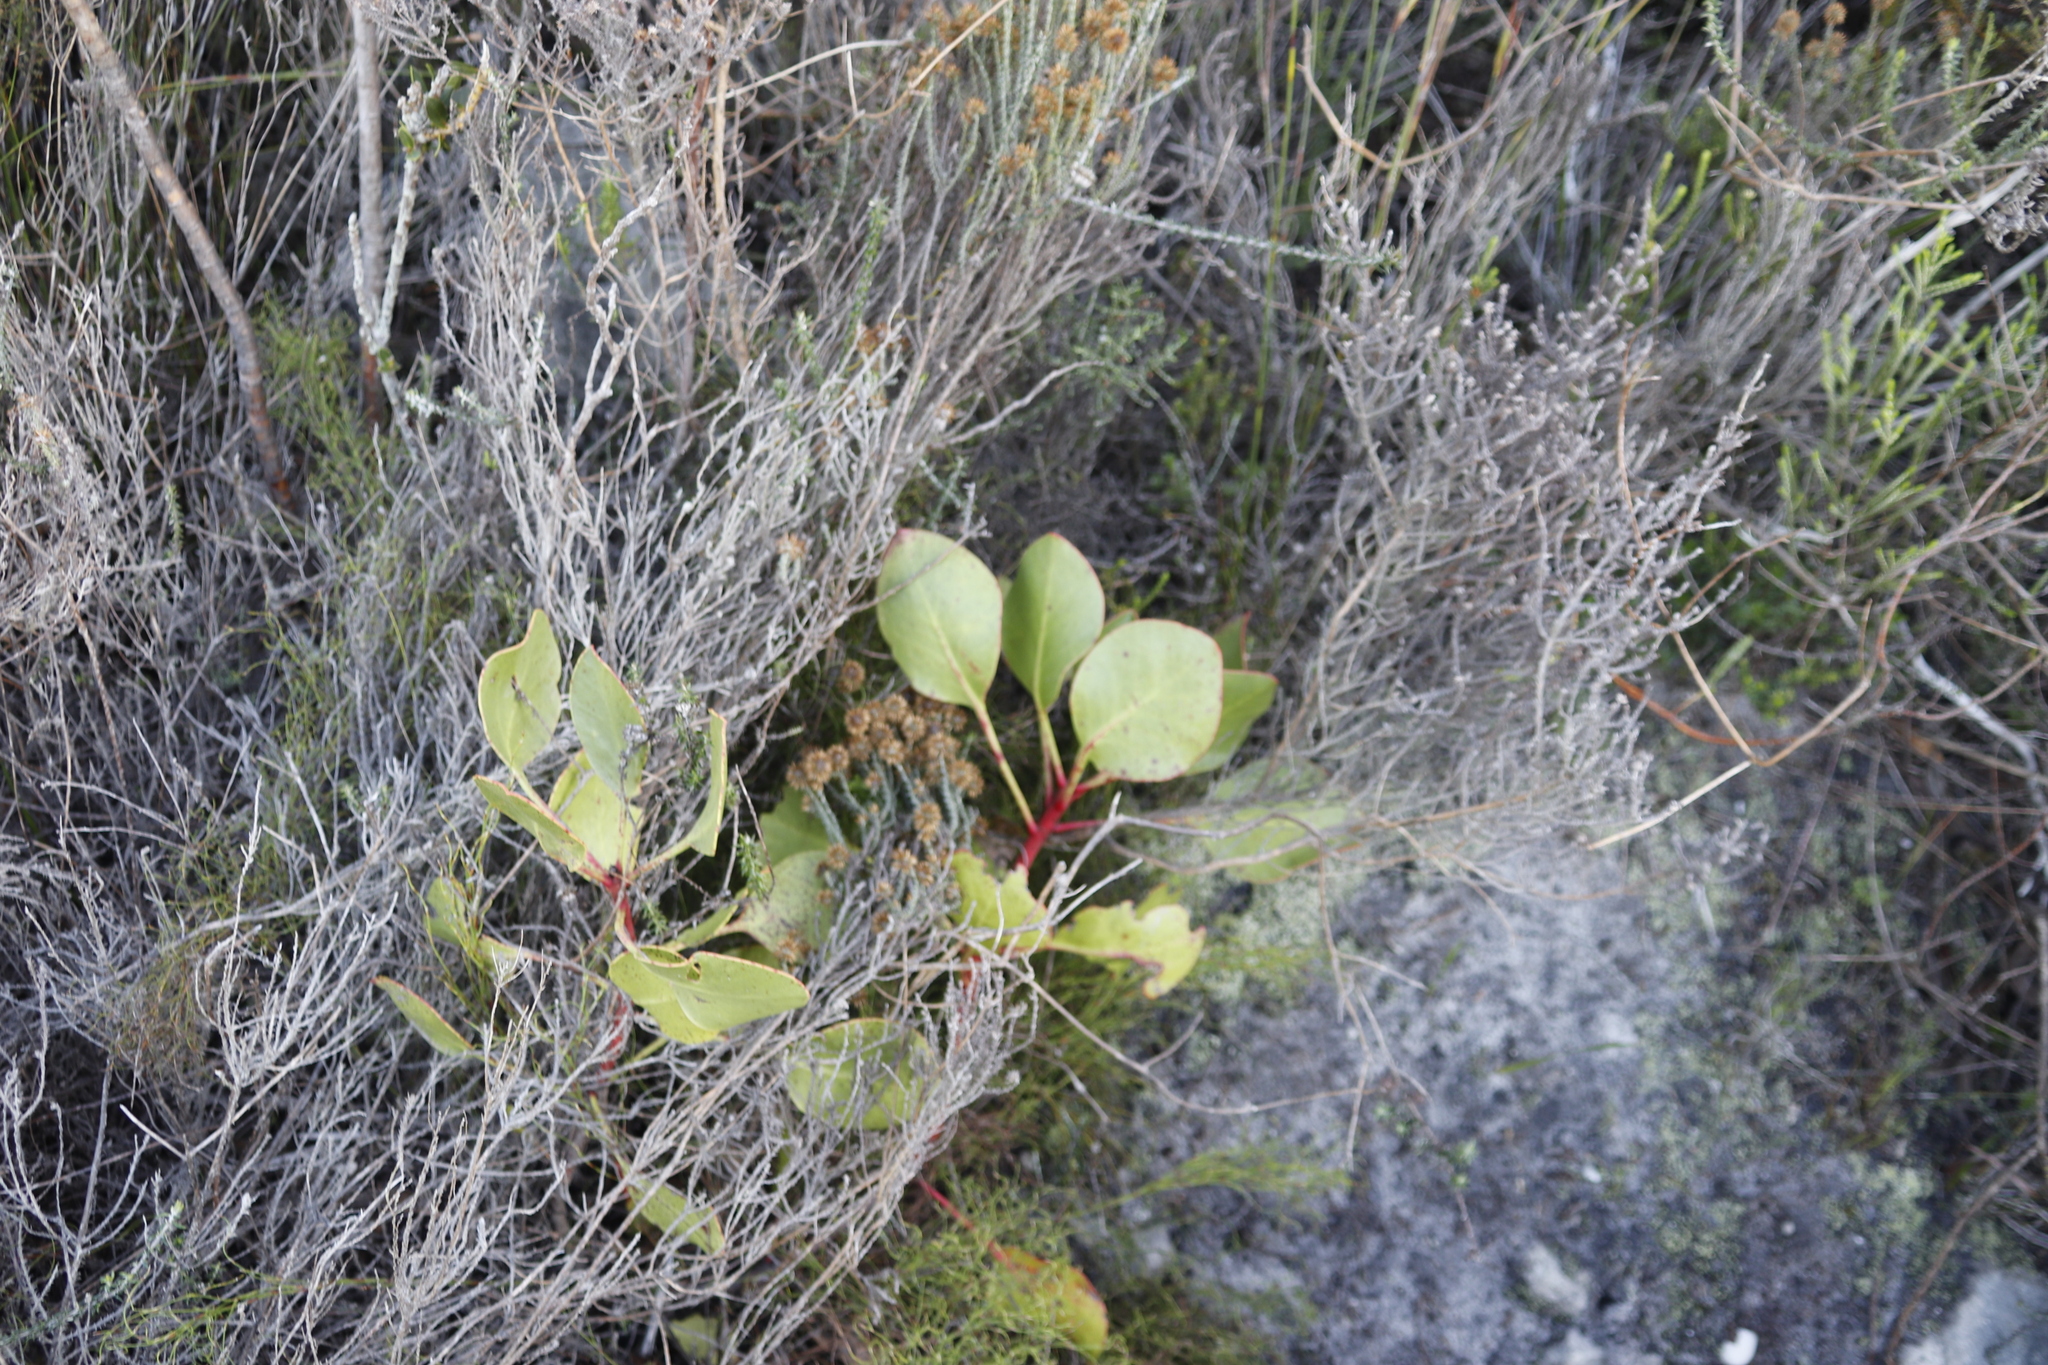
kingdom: Plantae
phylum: Tracheophyta
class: Magnoliopsida
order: Proteales
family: Proteaceae
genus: Protea
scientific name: Protea cynaroides
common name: King protea
